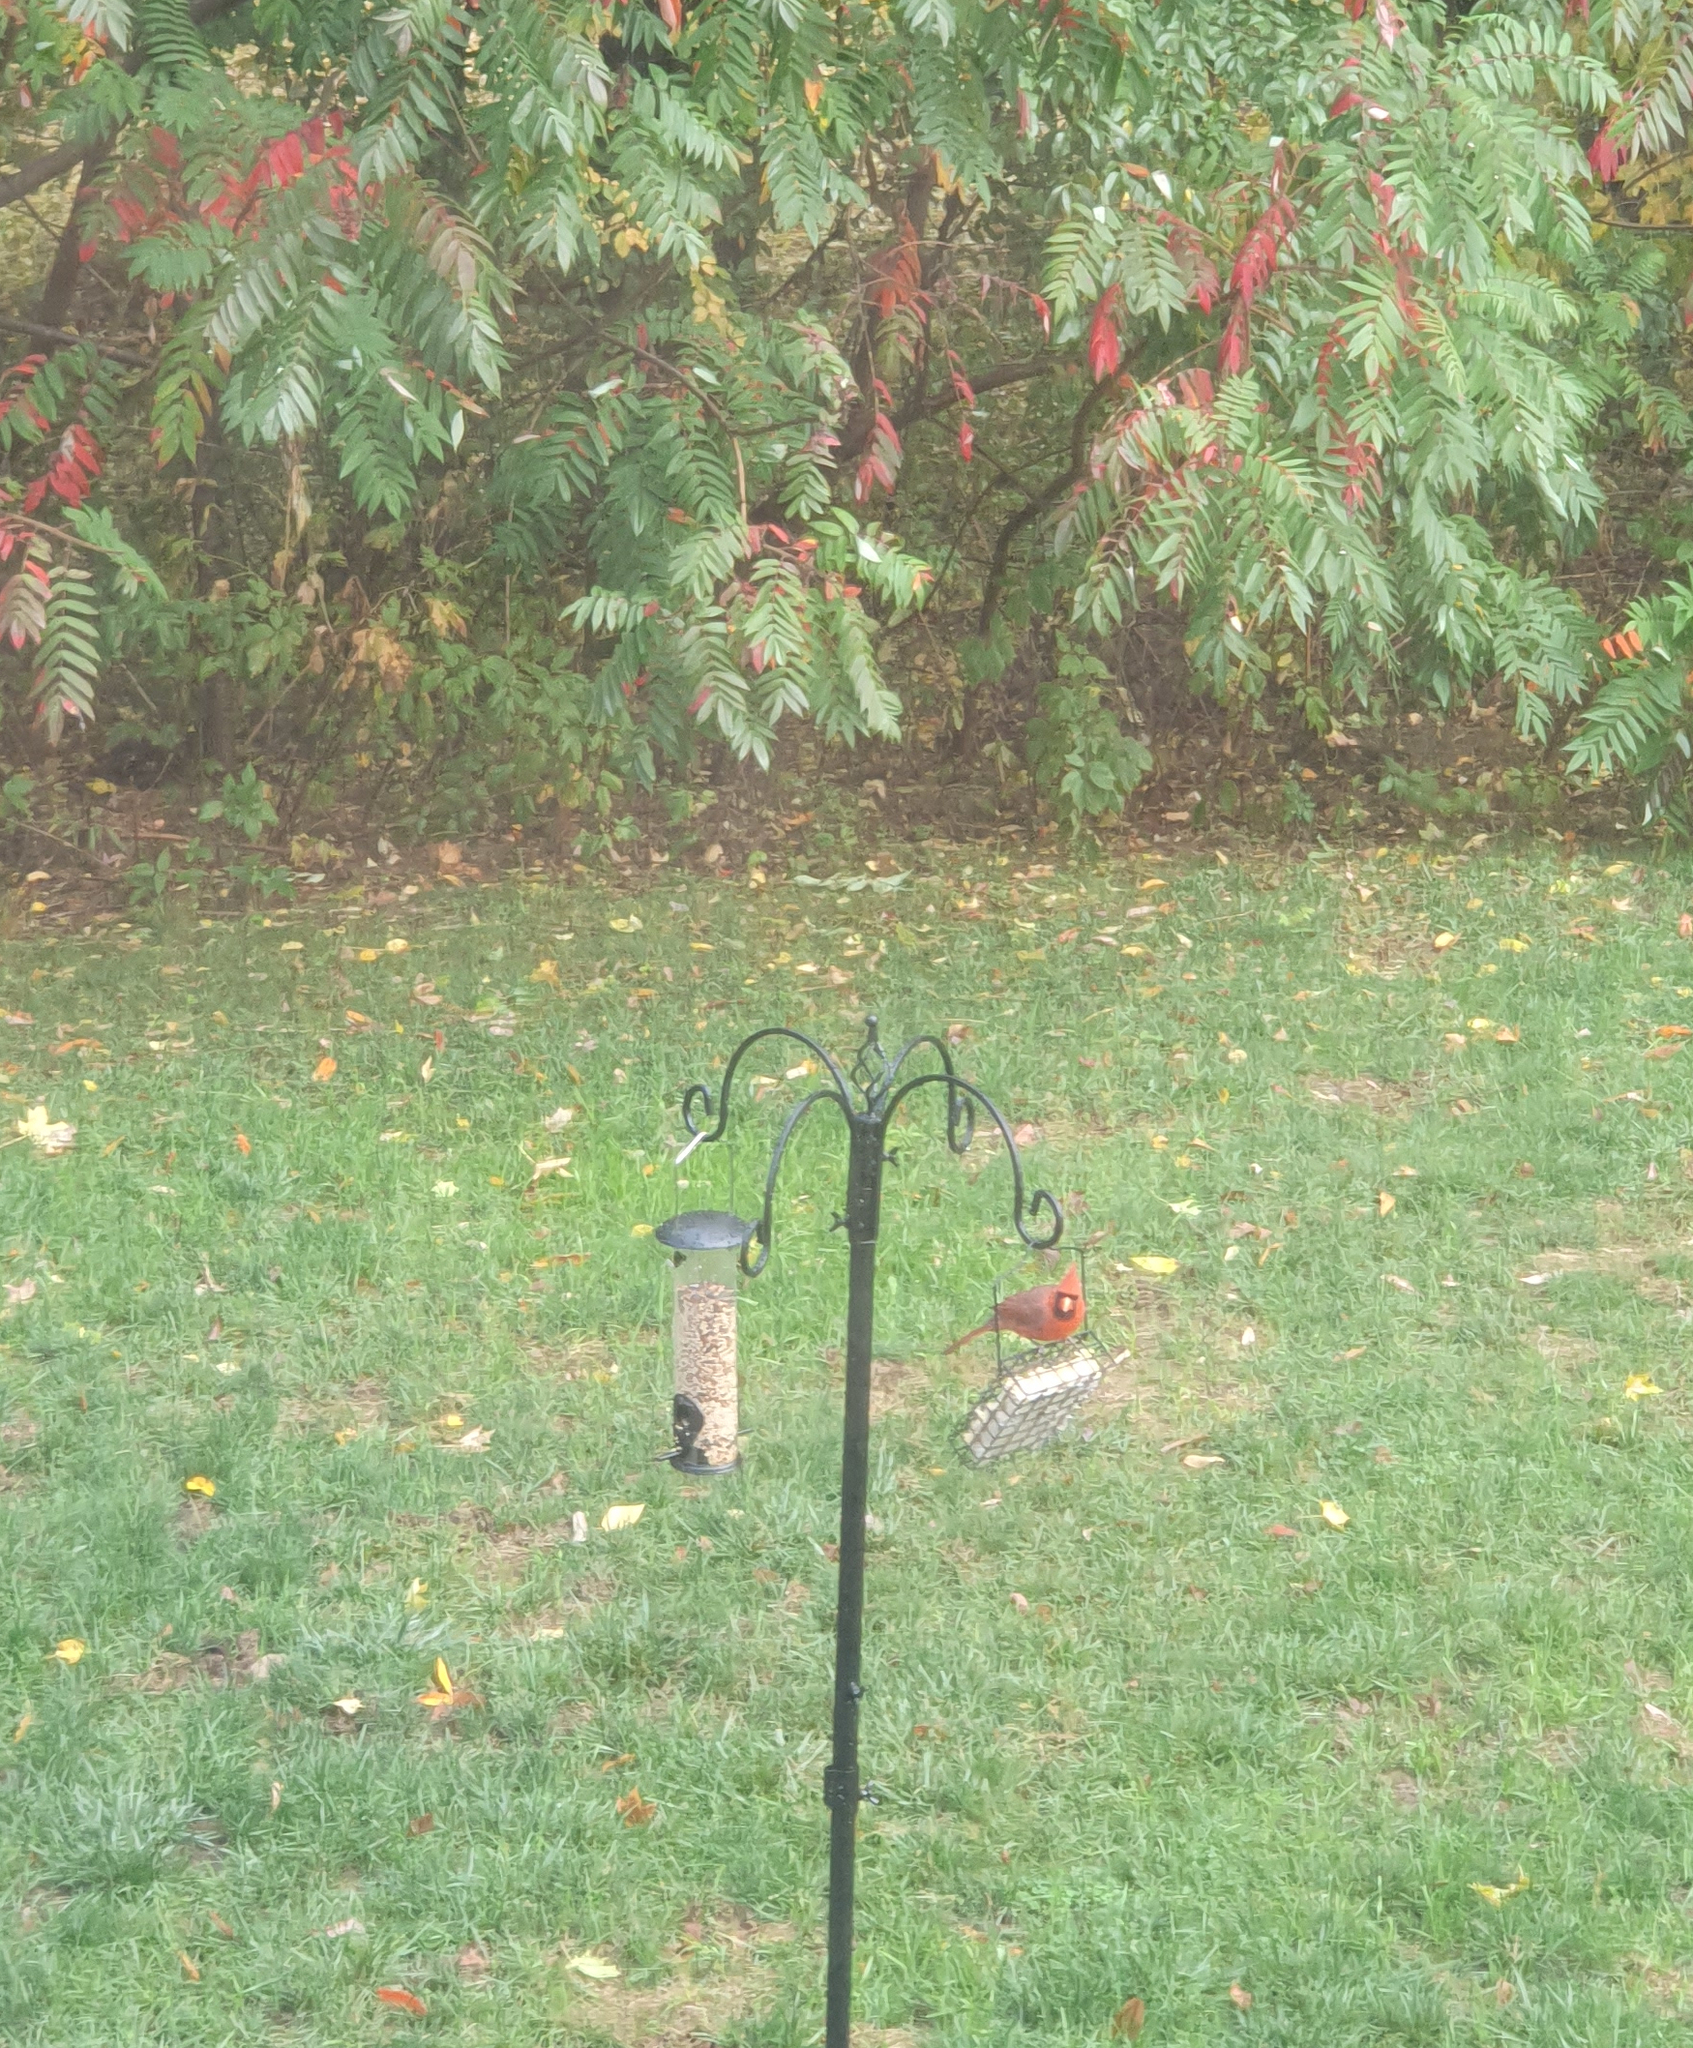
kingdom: Animalia
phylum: Chordata
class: Aves
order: Passeriformes
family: Cardinalidae
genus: Cardinalis
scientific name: Cardinalis cardinalis
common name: Northern cardinal
